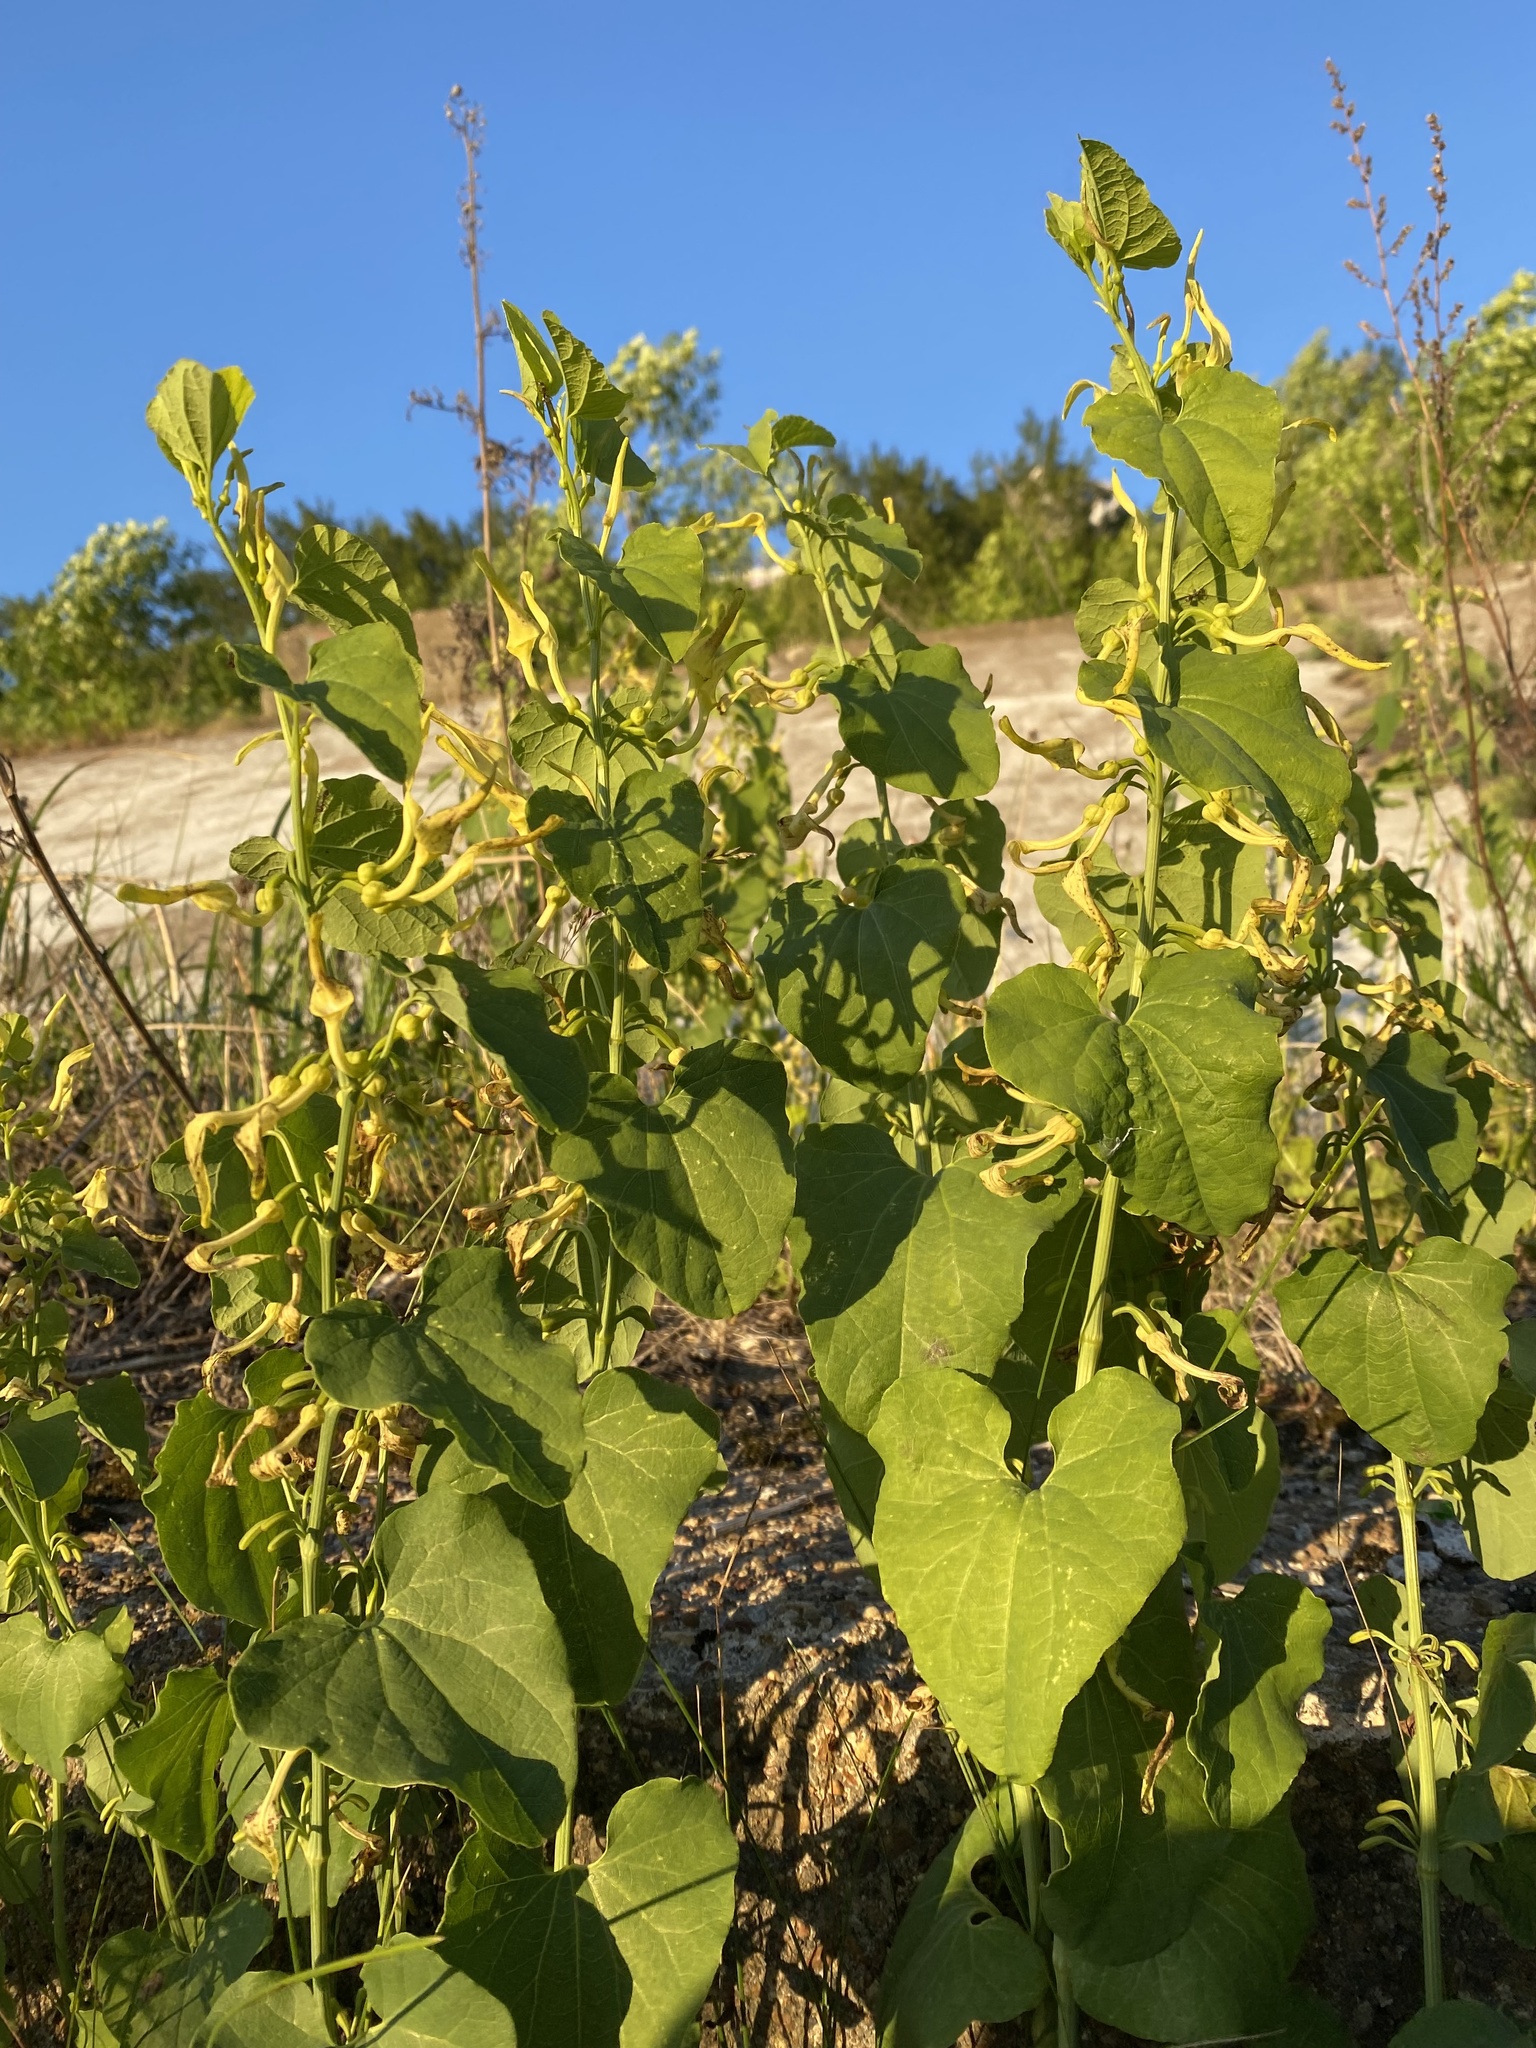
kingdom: Plantae
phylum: Tracheophyta
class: Magnoliopsida
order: Piperales
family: Aristolochiaceae
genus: Aristolochia
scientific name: Aristolochia clematitis
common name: Birthwort
